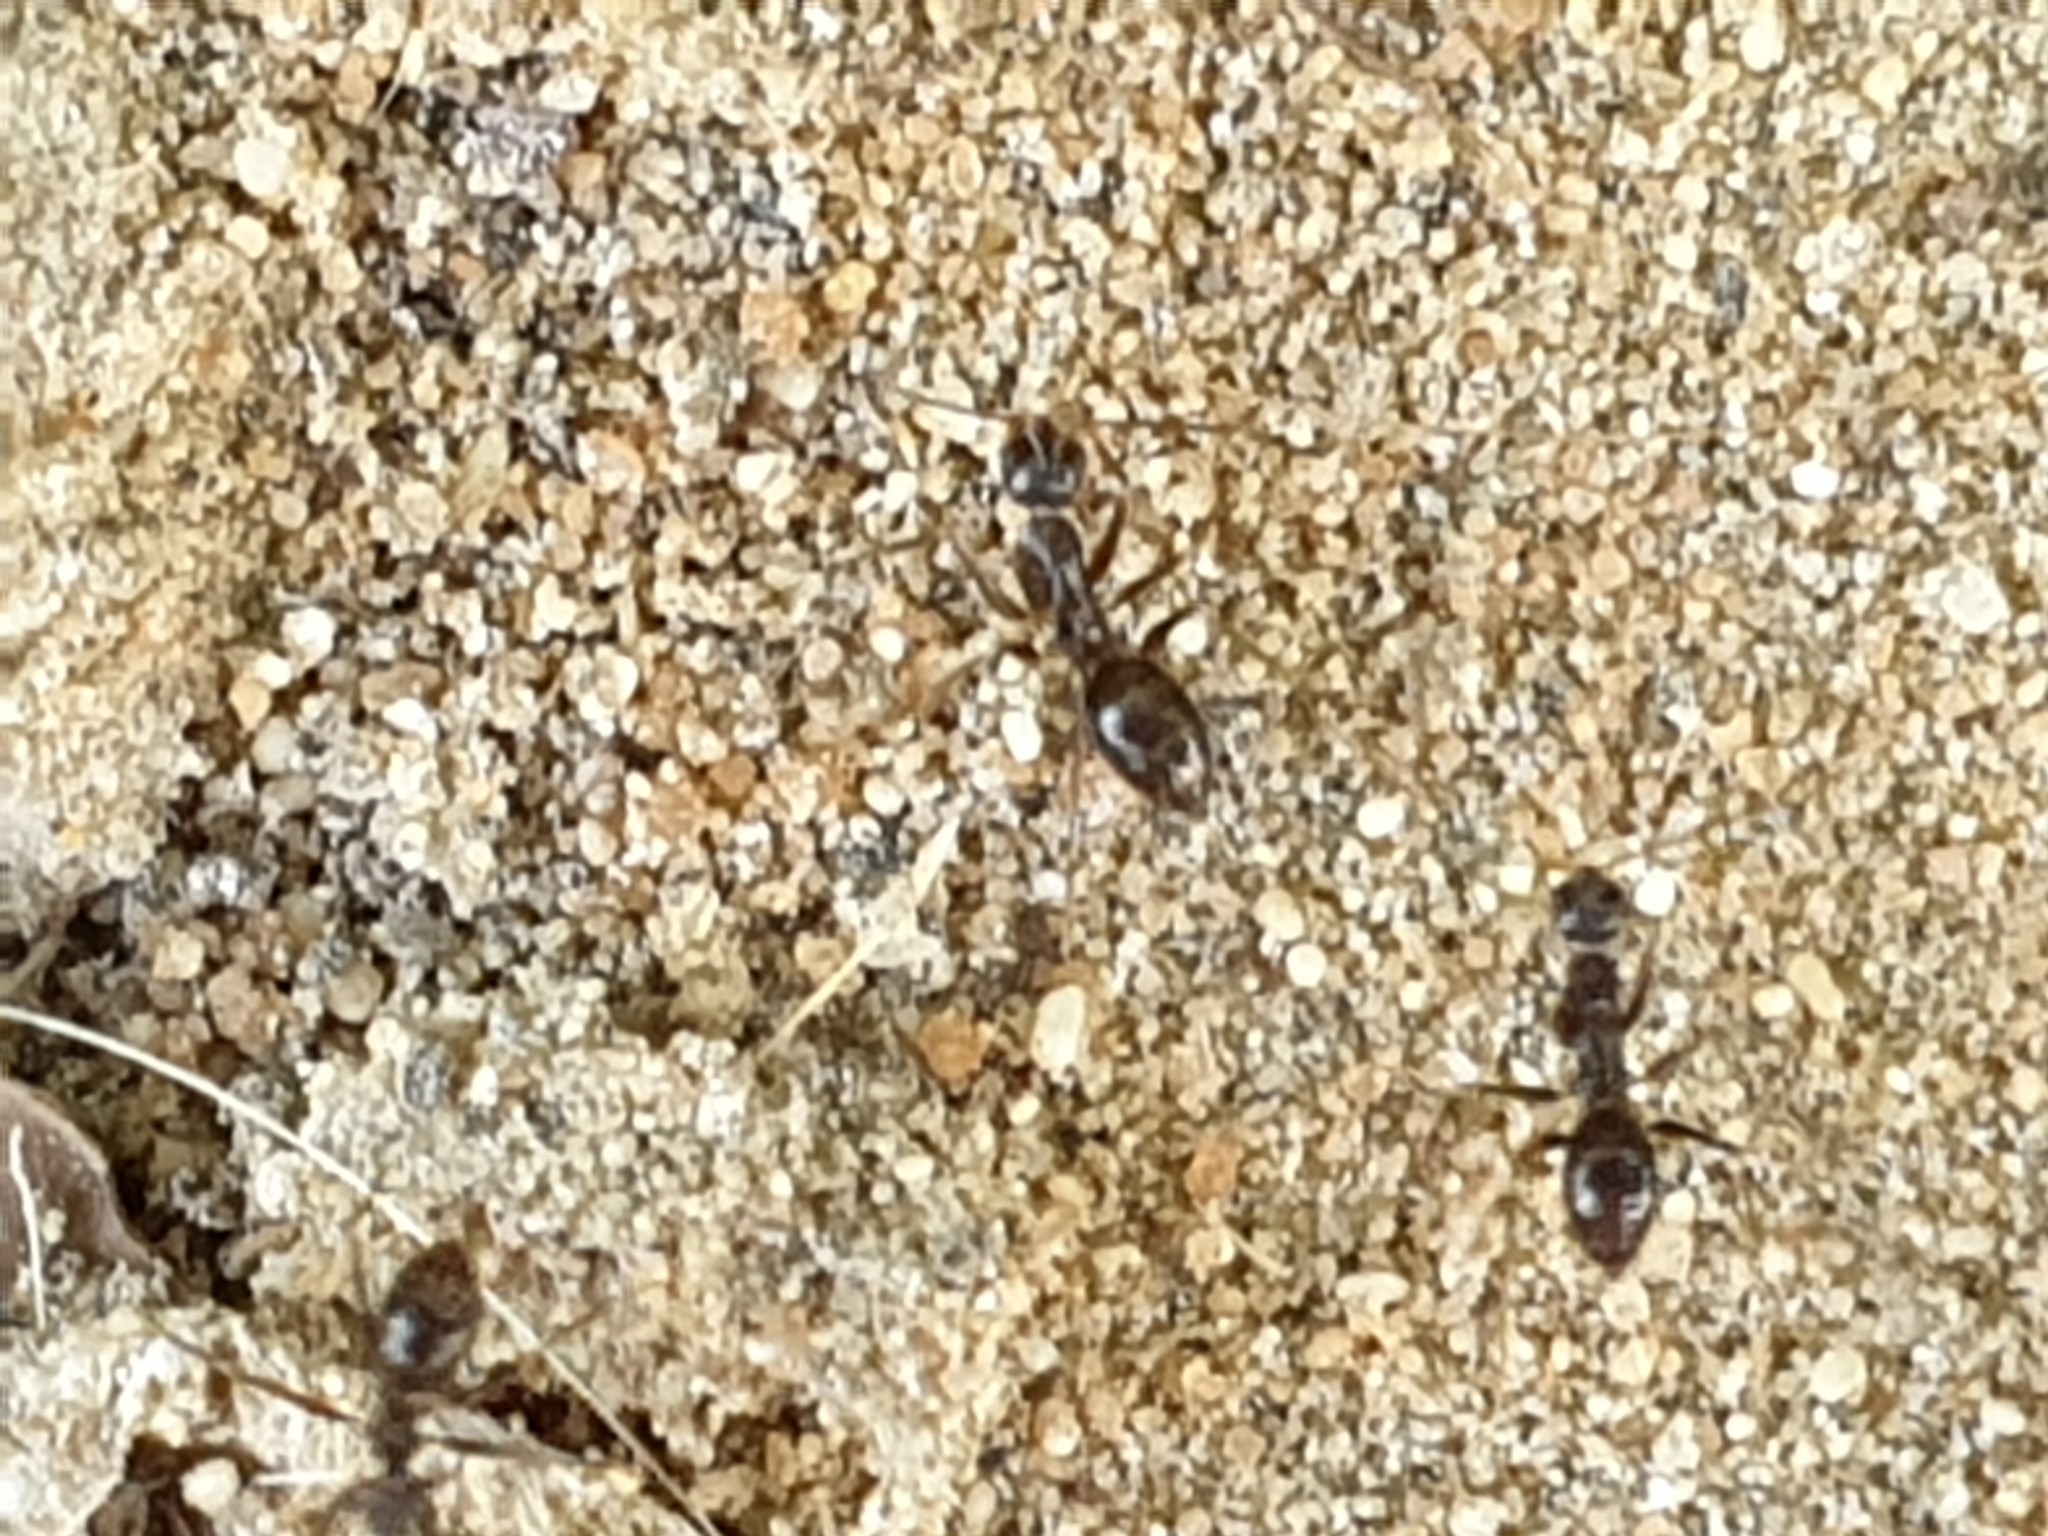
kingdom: Animalia
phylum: Arthropoda
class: Insecta
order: Hymenoptera
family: Formicidae
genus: Paratrechina
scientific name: Paratrechina longicornis
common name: Longhorned crazy ant
